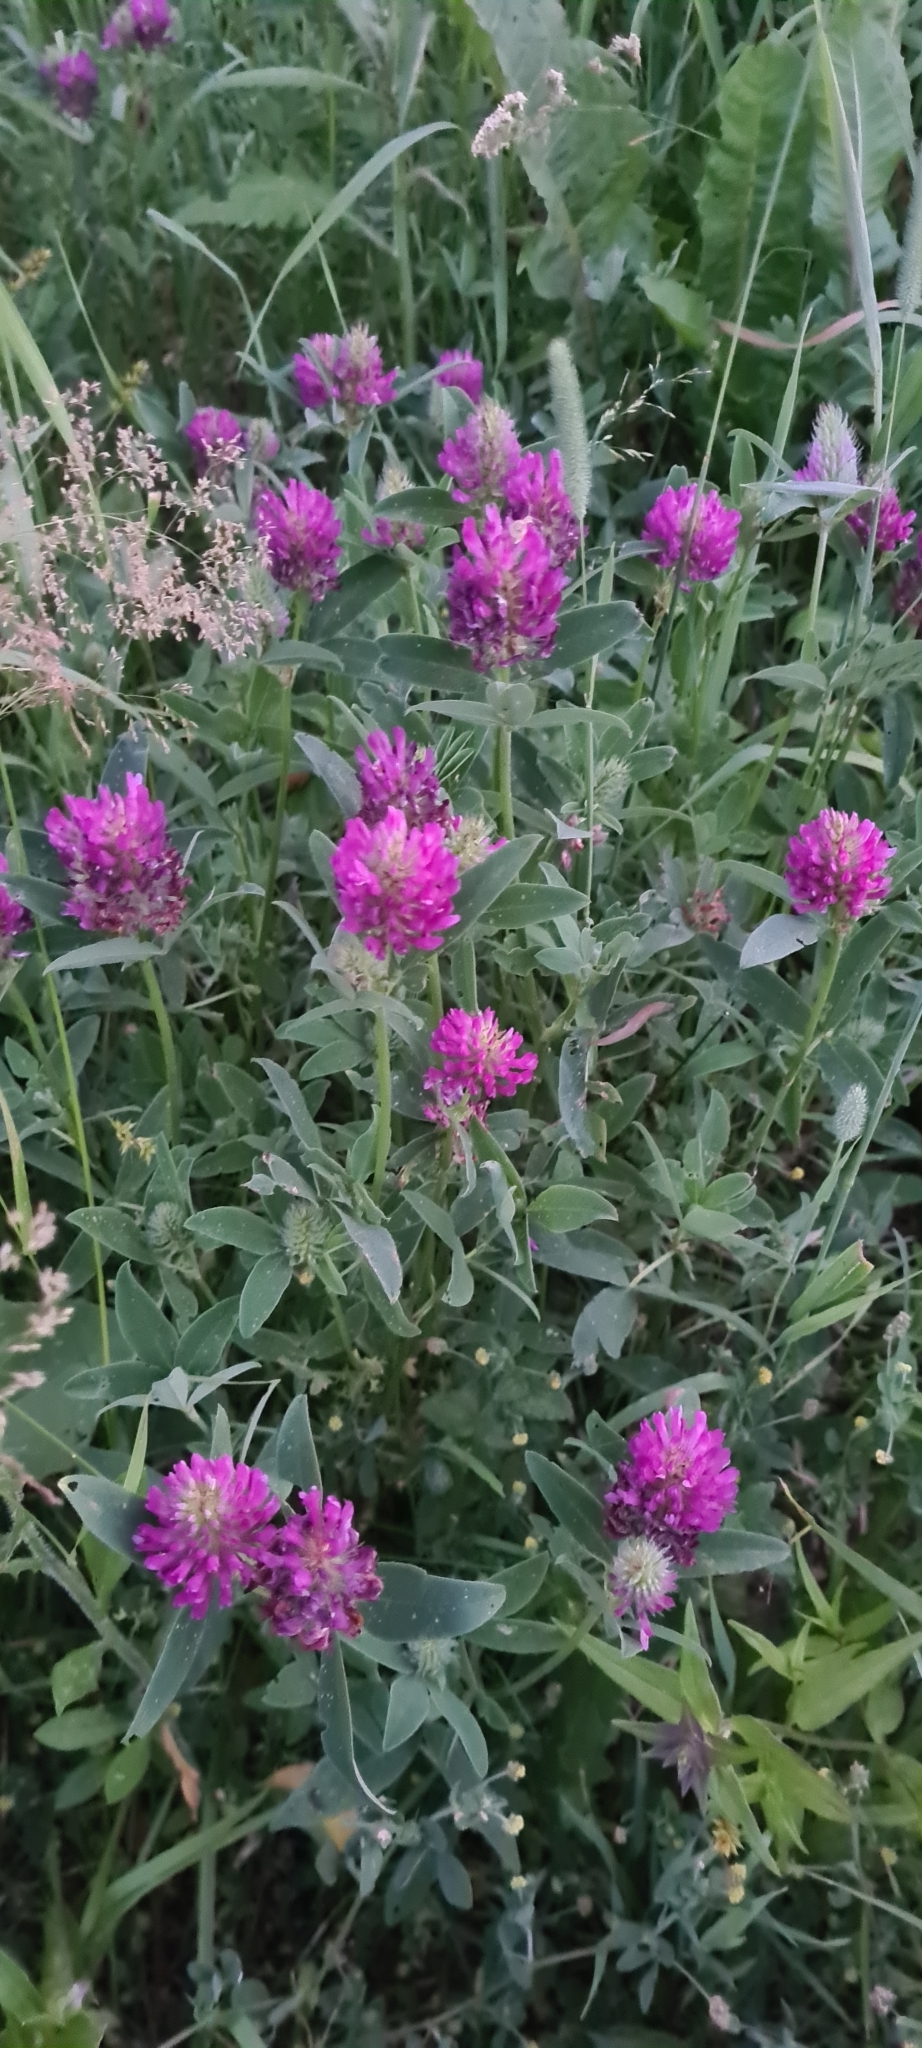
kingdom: Plantae
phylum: Tracheophyta
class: Magnoliopsida
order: Fabales
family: Fabaceae
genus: Trifolium
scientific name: Trifolium pratense
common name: Red clover
